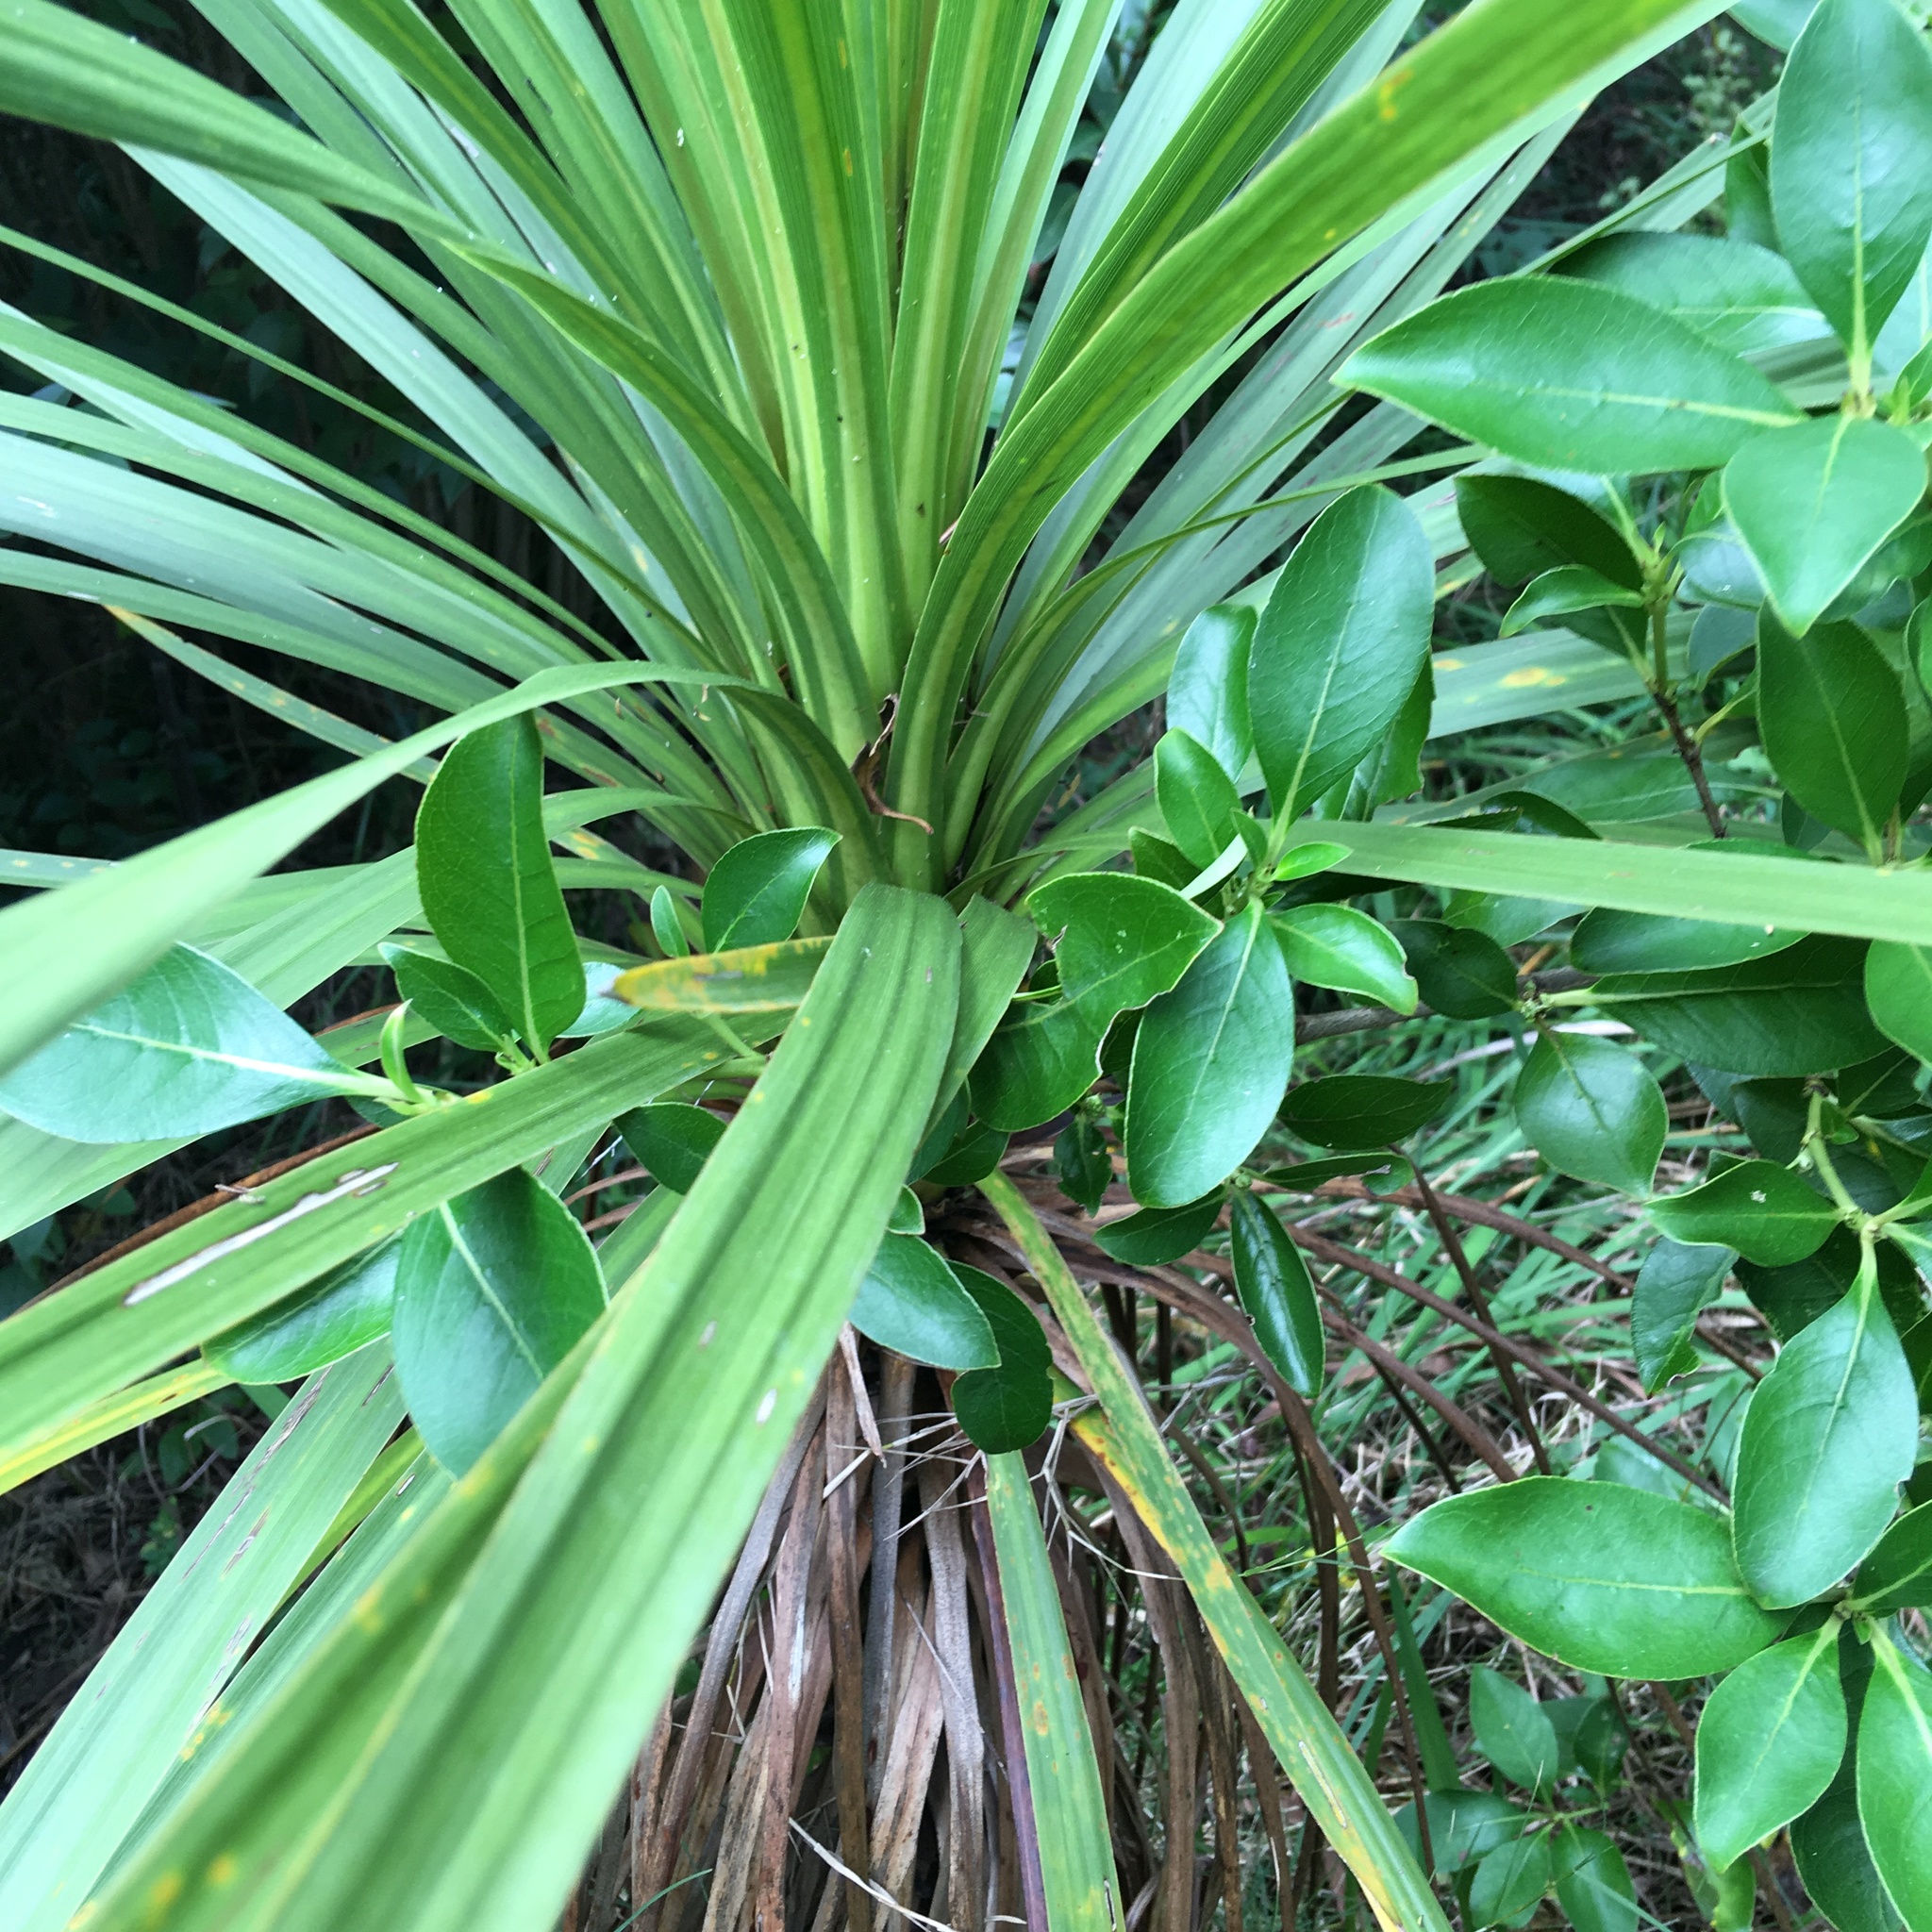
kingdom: Plantae
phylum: Tracheophyta
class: Magnoliopsida
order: Gentianales
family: Rubiaceae
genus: Coprosma
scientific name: Coprosma robusta
